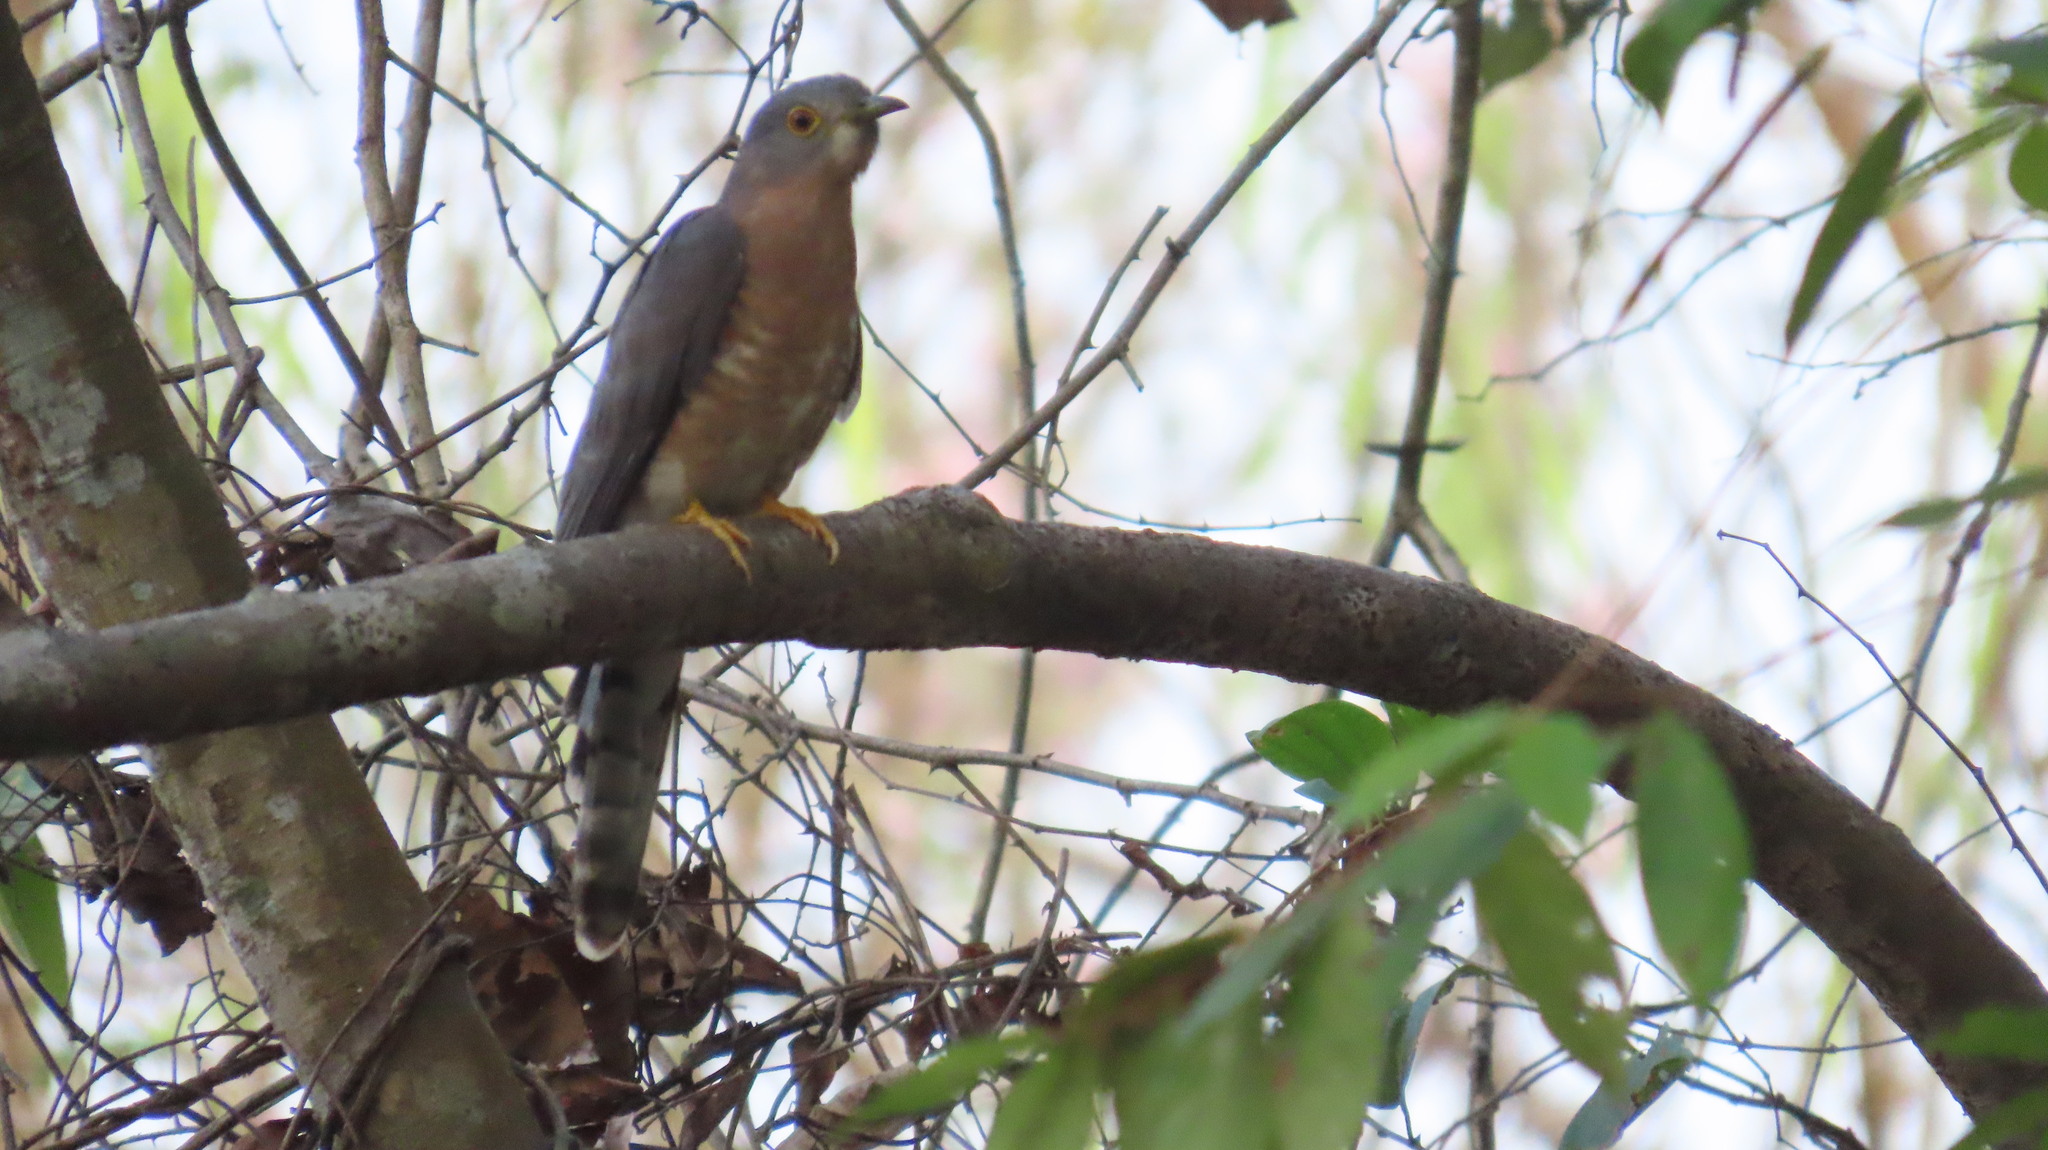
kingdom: Animalia
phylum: Chordata
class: Aves
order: Cuculiformes
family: Cuculidae
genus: Cuculus
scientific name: Cuculus varius
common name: Common hawk cuckoo
